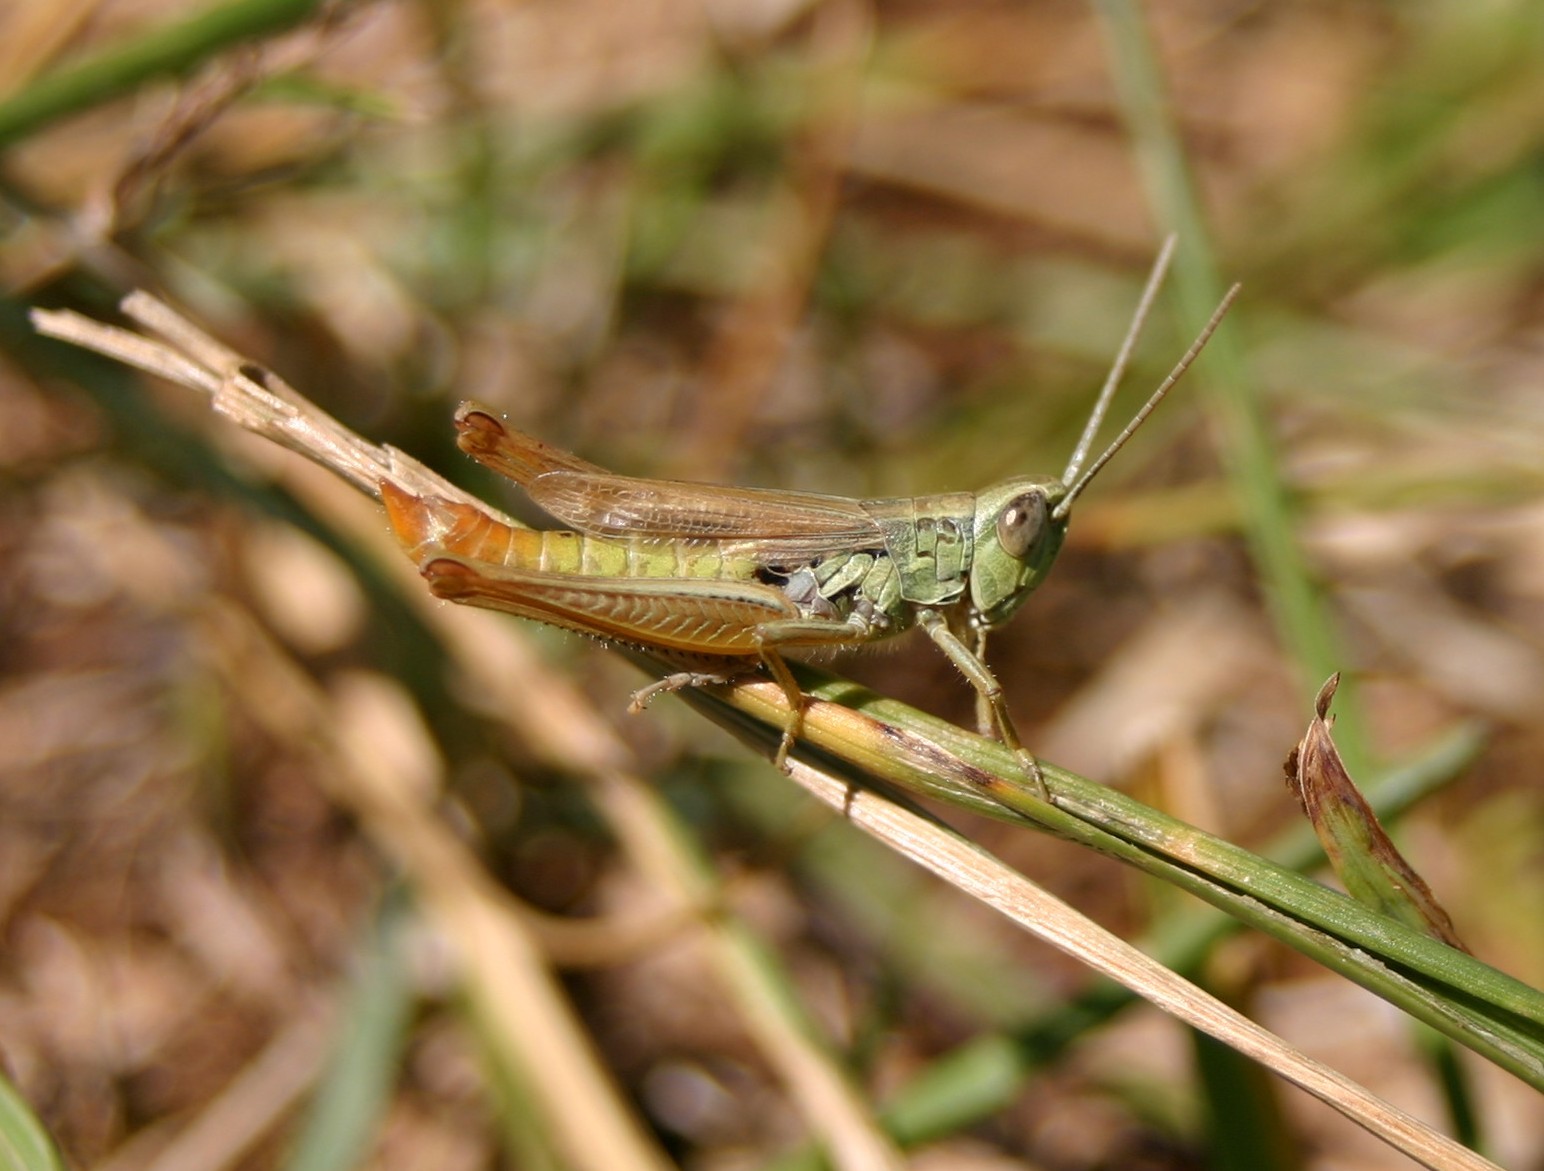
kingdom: Animalia
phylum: Arthropoda
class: Insecta
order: Orthoptera
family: Acrididae
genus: Euchorthippus
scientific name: Euchorthippus declivus
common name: Common straw grasshopper
